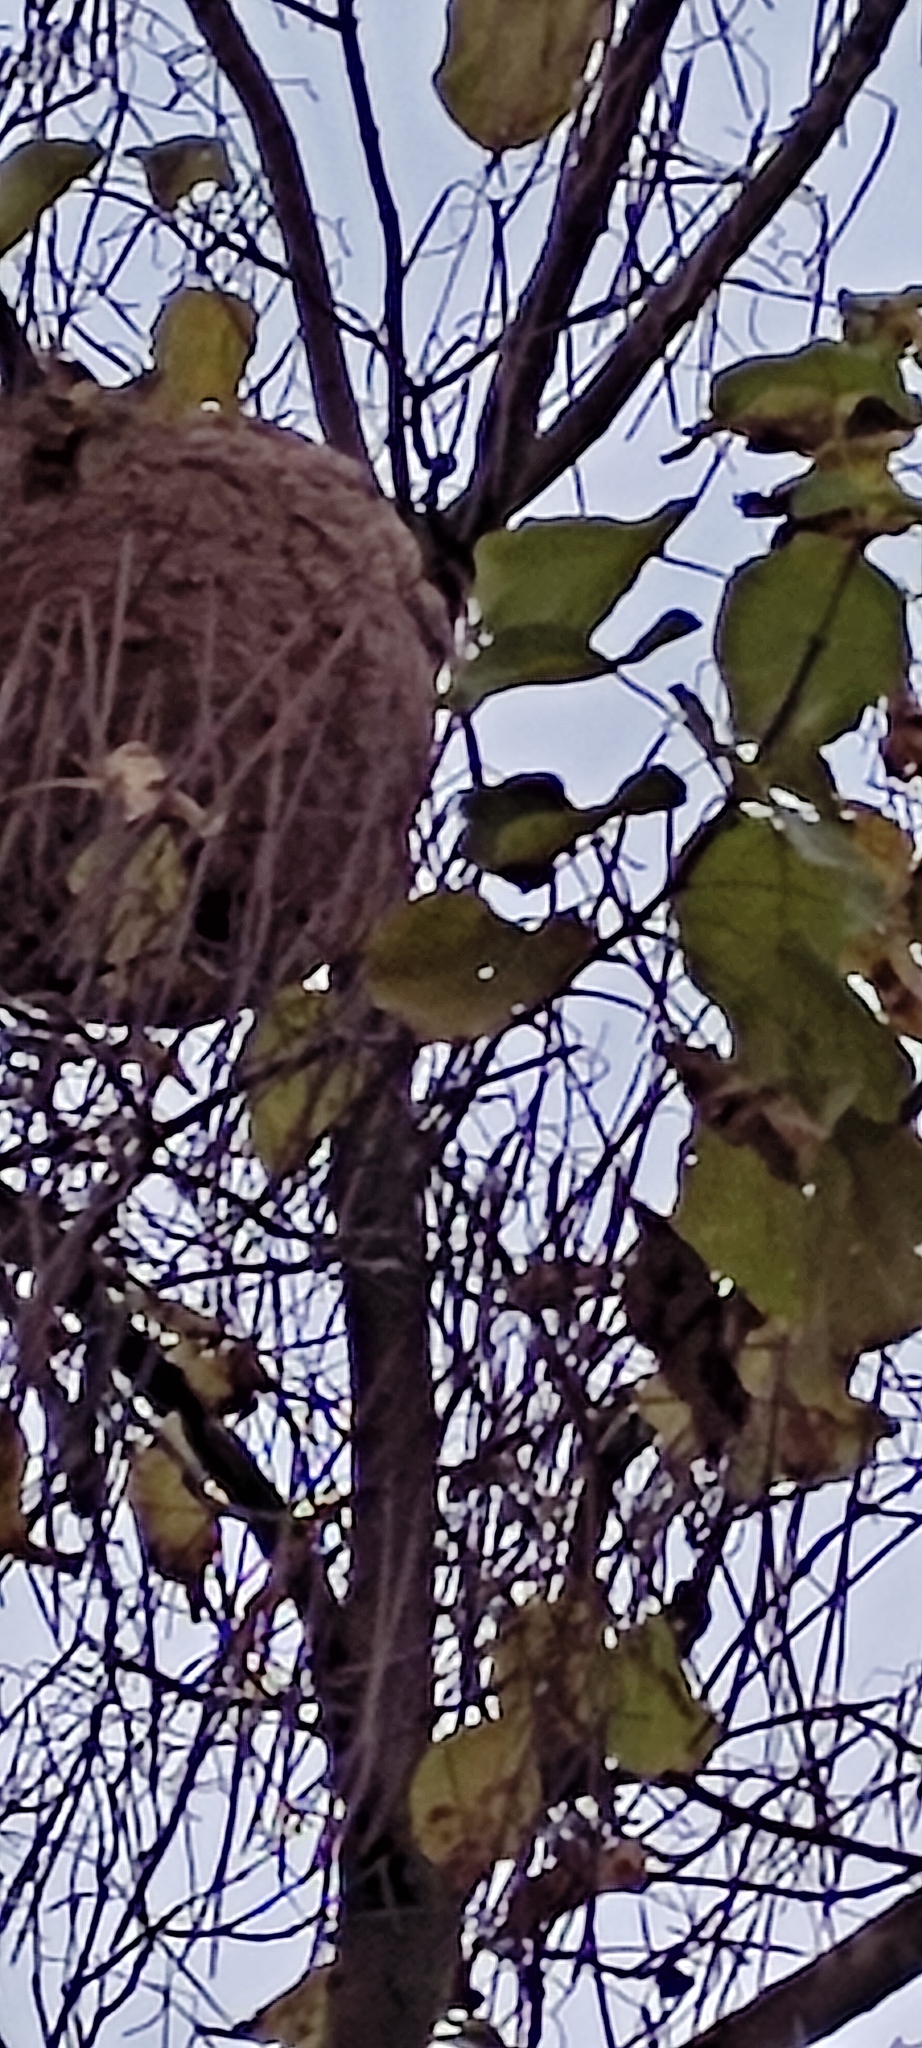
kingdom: Animalia
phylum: Arthropoda
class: Insecta
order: Hymenoptera
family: Vespidae
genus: Vespa
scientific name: Vespa velutina
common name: Asian hornet
